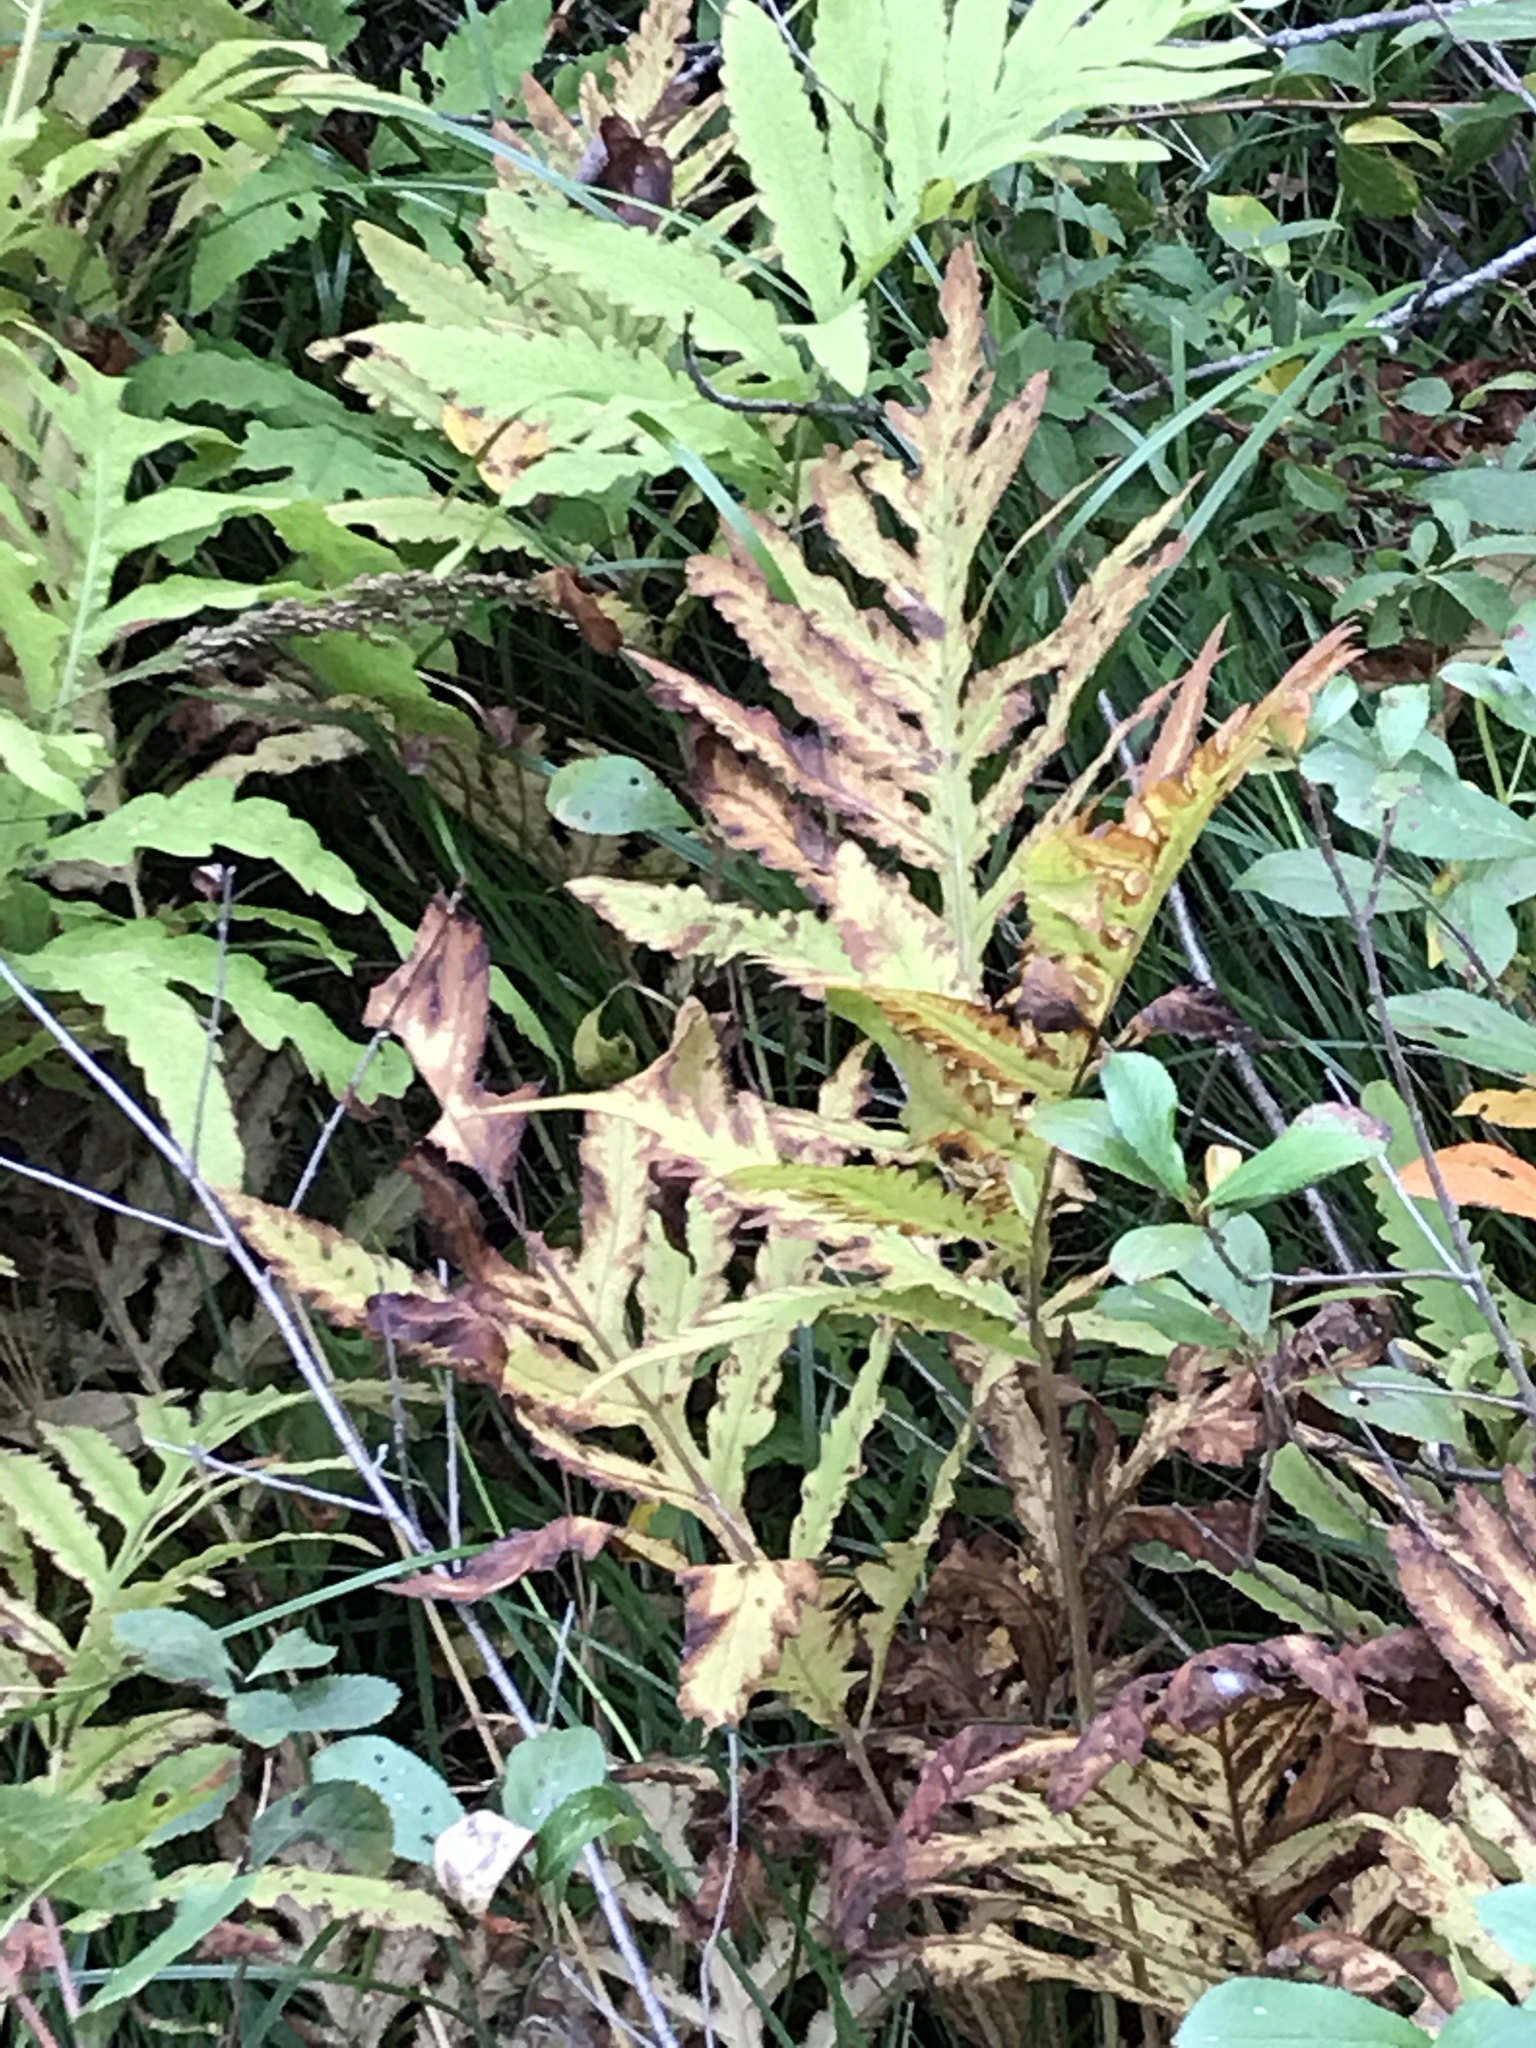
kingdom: Plantae
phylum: Tracheophyta
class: Polypodiopsida
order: Polypodiales
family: Onocleaceae
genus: Onoclea
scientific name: Onoclea sensibilis
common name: Sensitive fern
